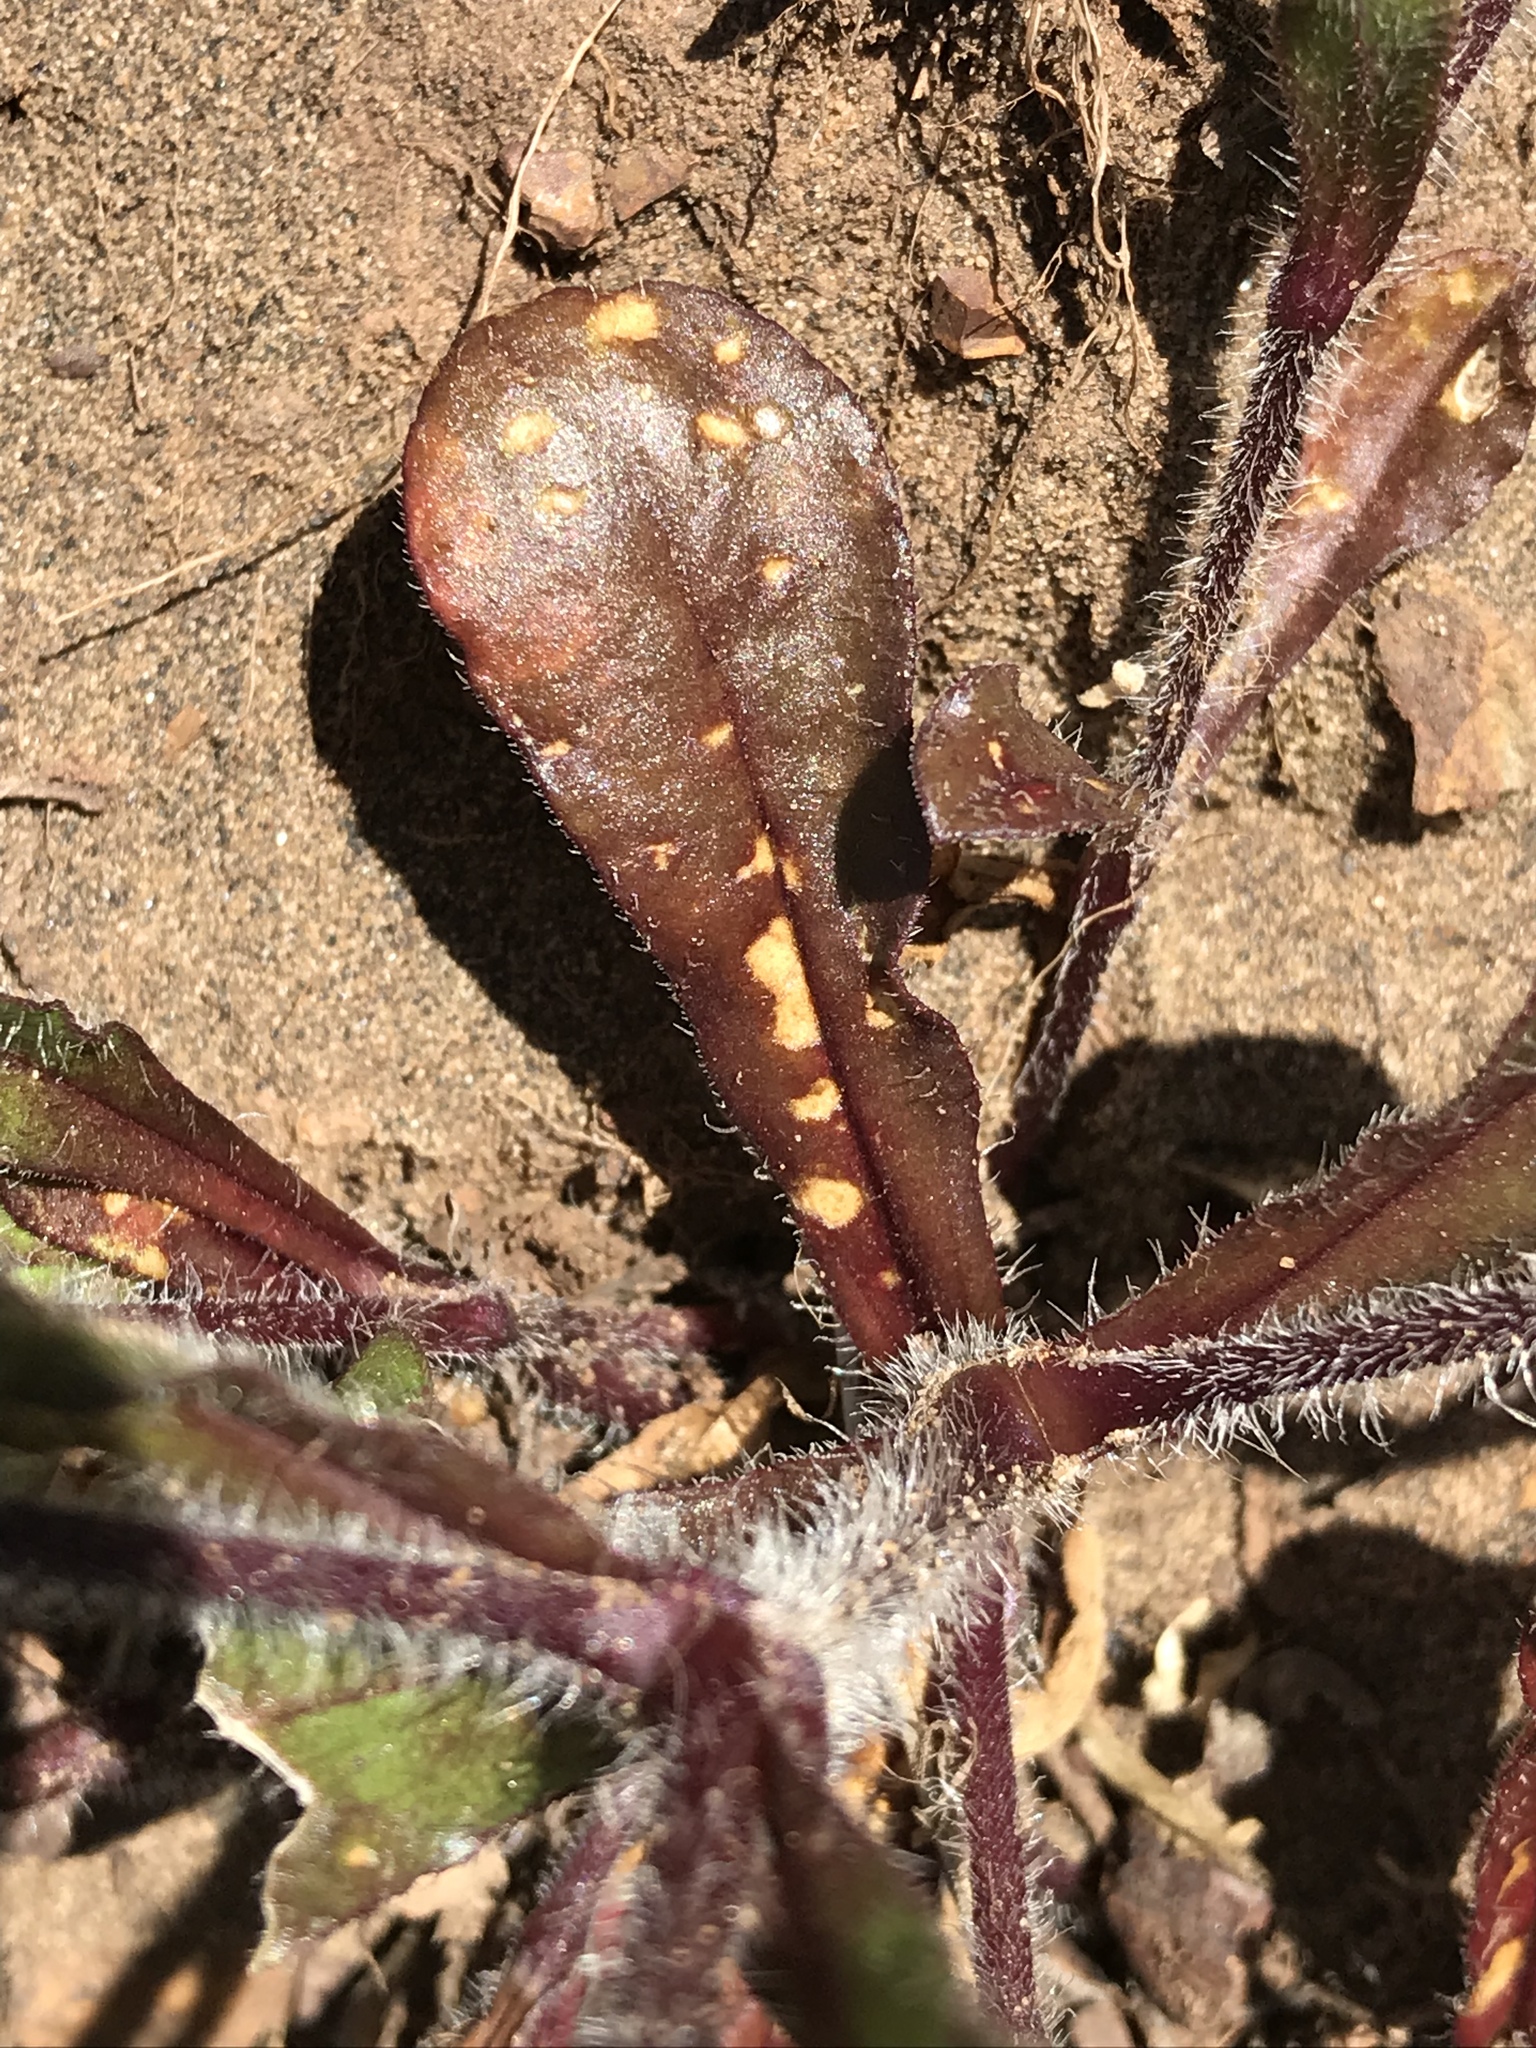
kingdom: Plantae
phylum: Tracheophyta
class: Magnoliopsida
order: Caryophyllales
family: Caryophyllaceae
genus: Silene
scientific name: Silene gallica
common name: Small-flowered catchfly
